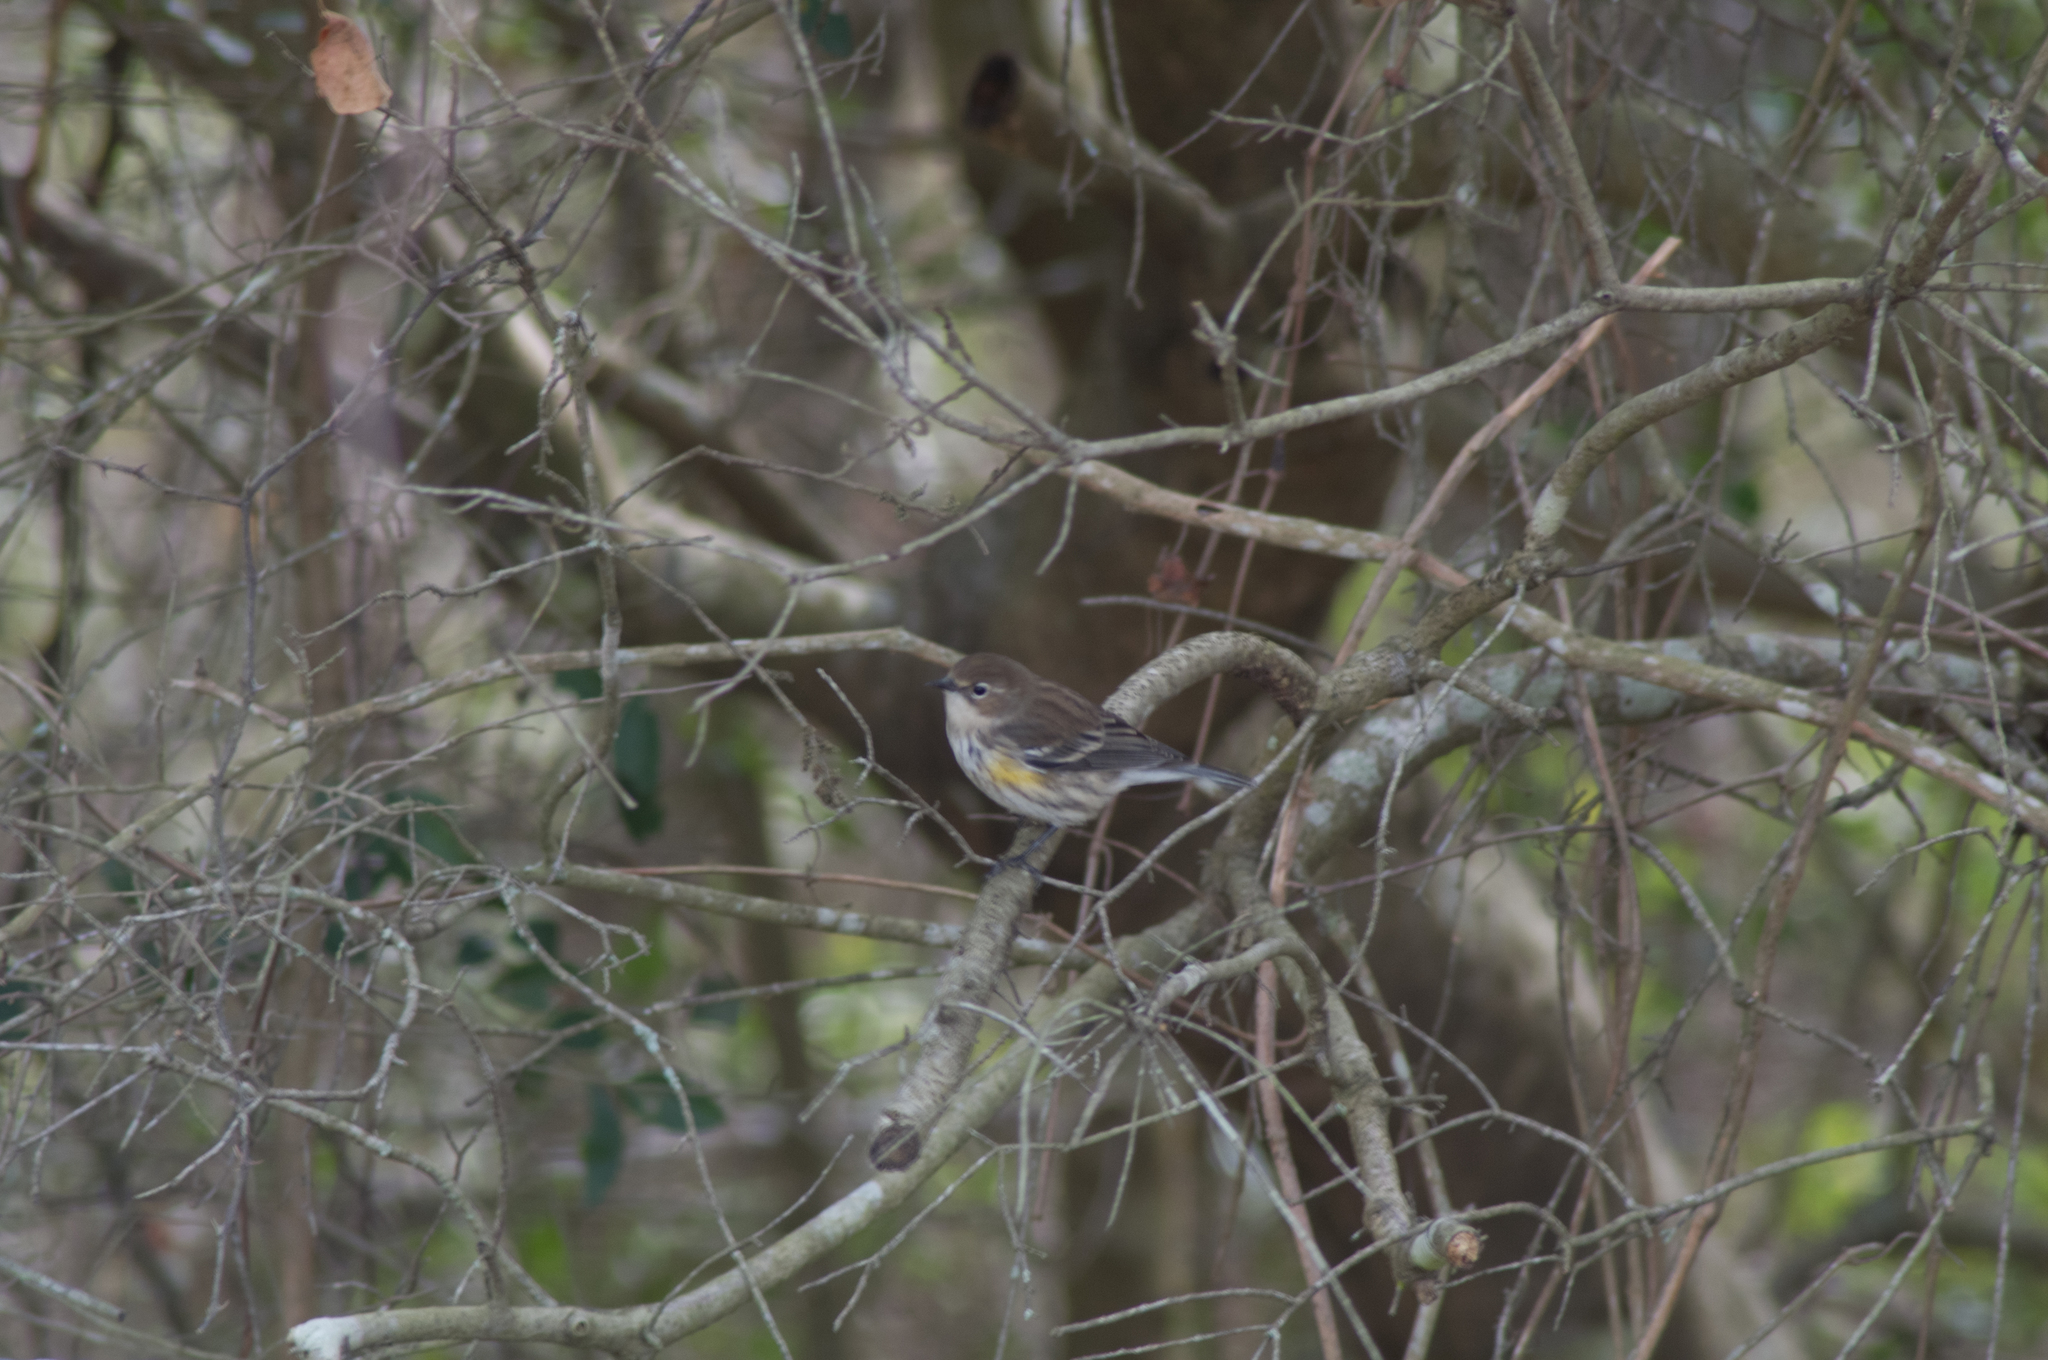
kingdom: Animalia
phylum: Chordata
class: Aves
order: Passeriformes
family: Parulidae
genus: Setophaga
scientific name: Setophaga coronata
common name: Myrtle warbler
